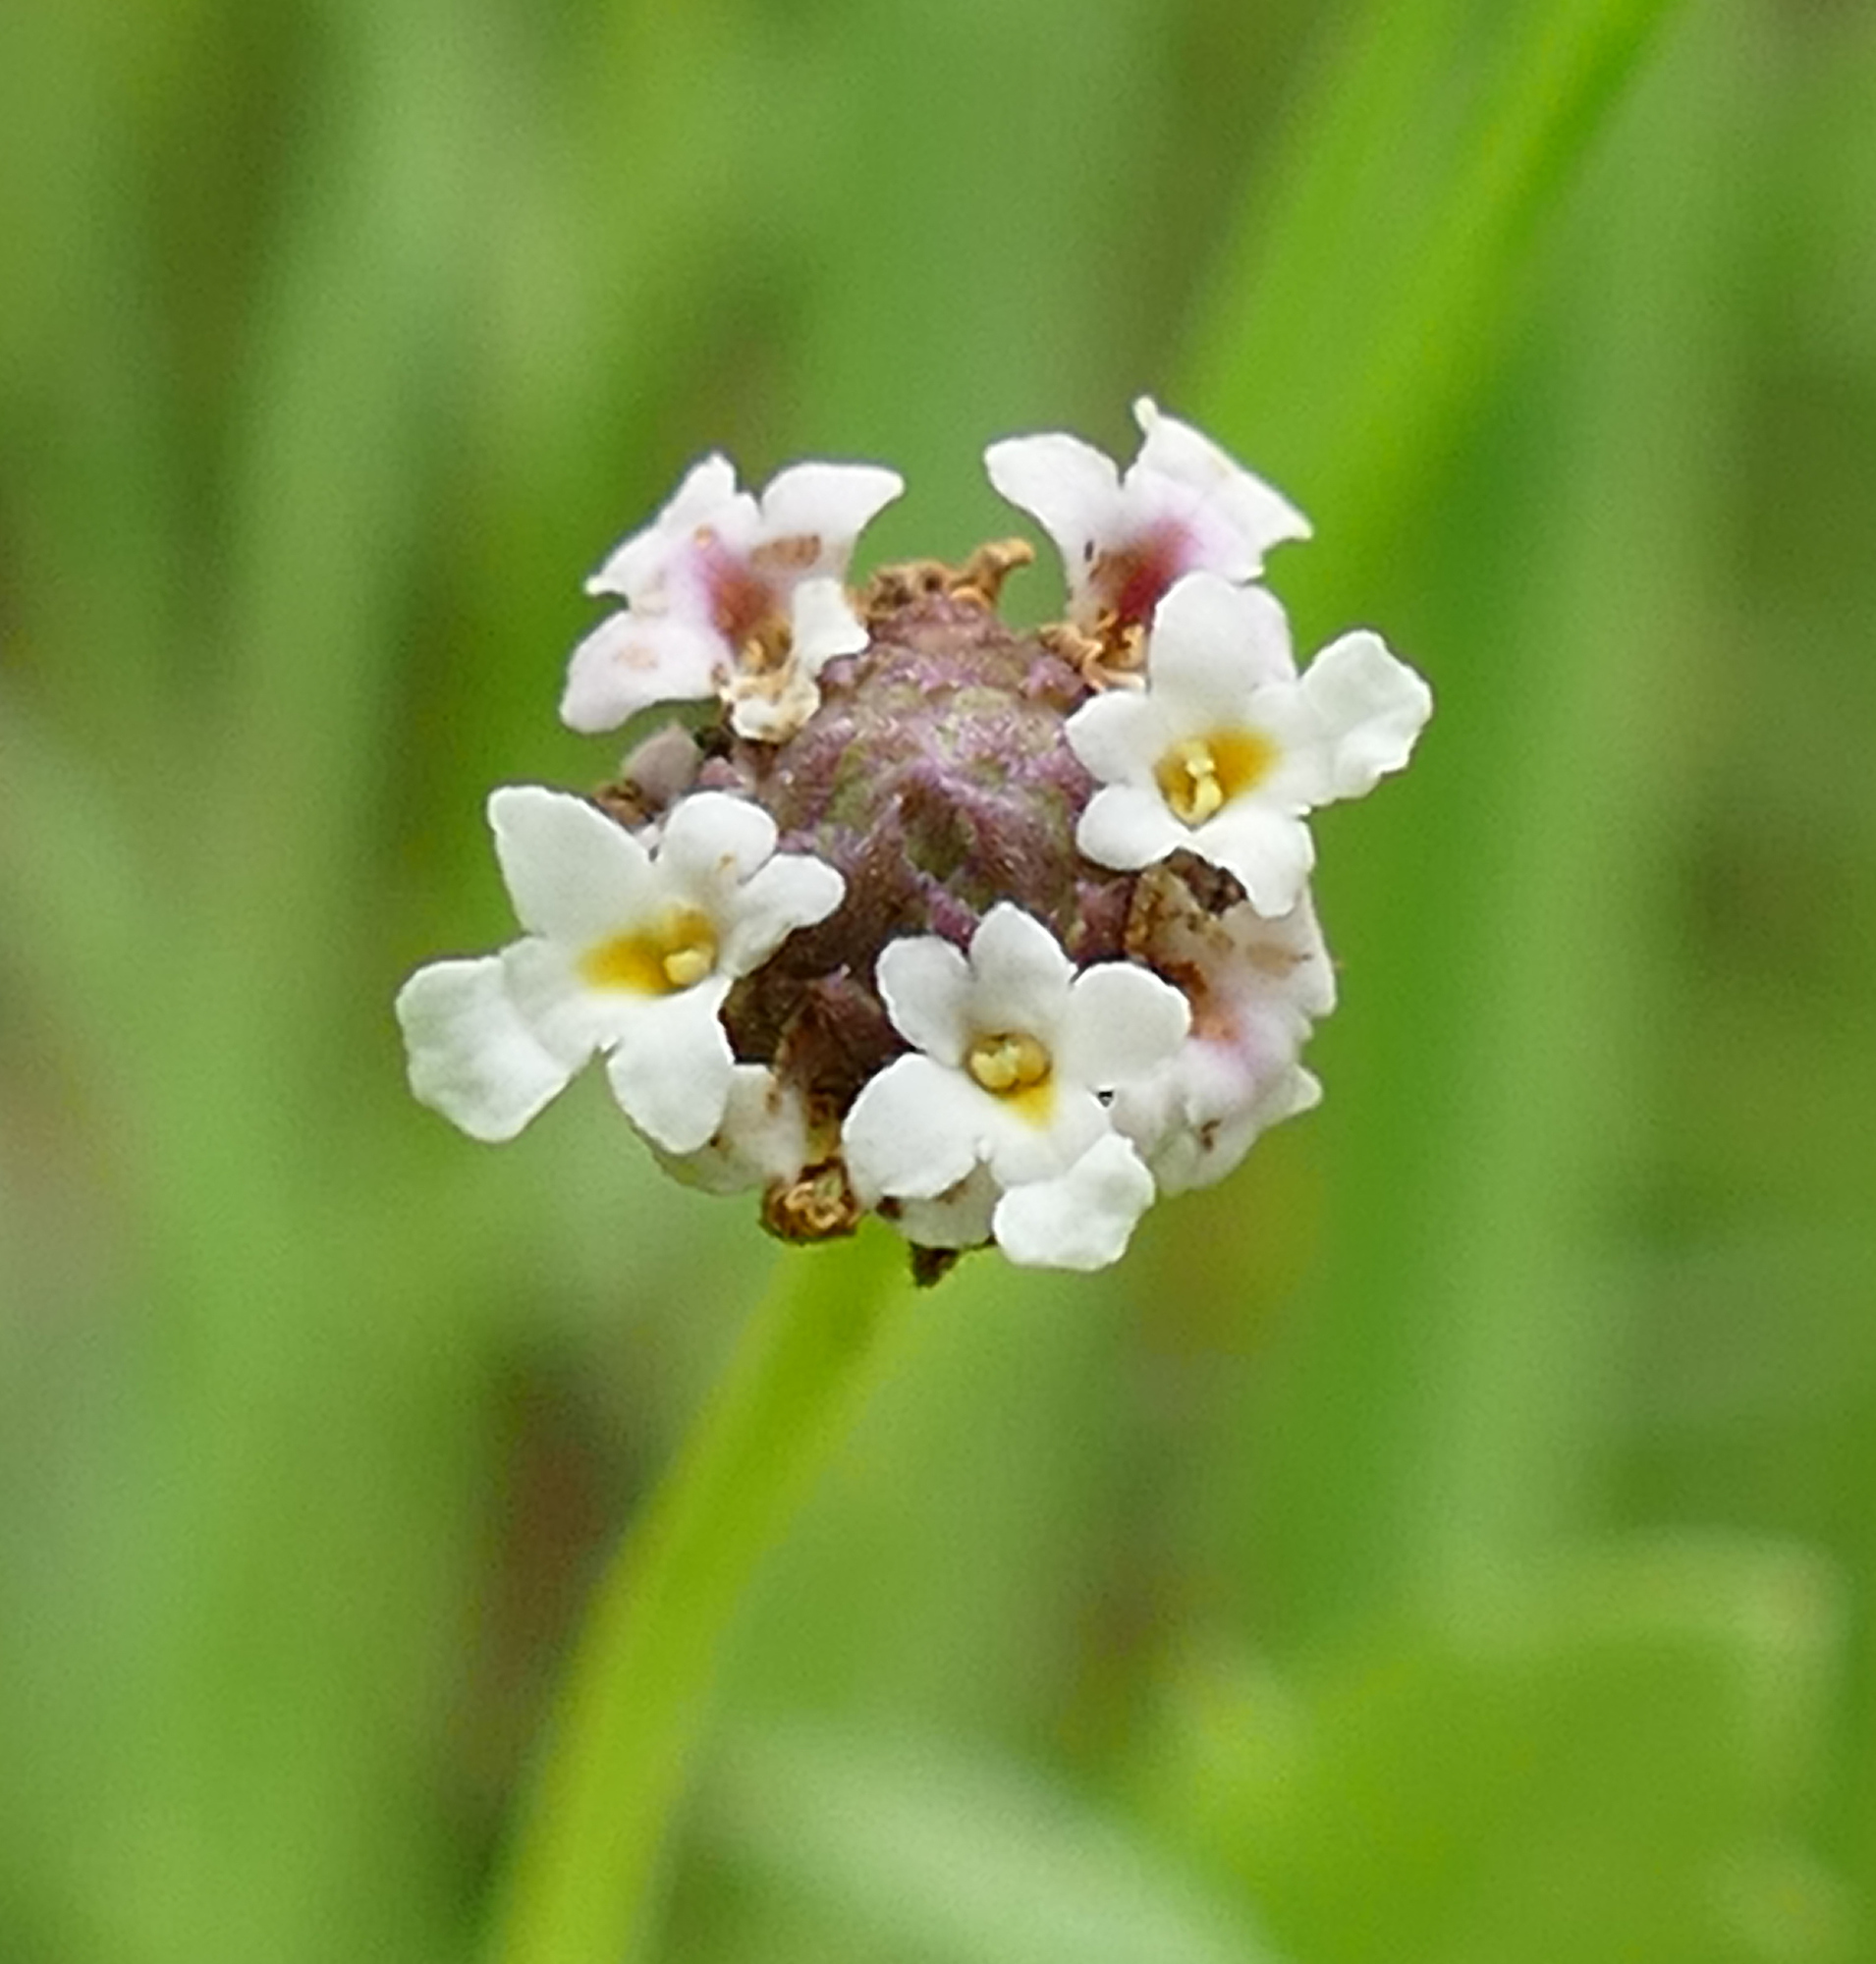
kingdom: Plantae
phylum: Tracheophyta
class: Magnoliopsida
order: Lamiales
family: Verbenaceae
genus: Phyla
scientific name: Phyla nodiflora
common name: Frogfruit
